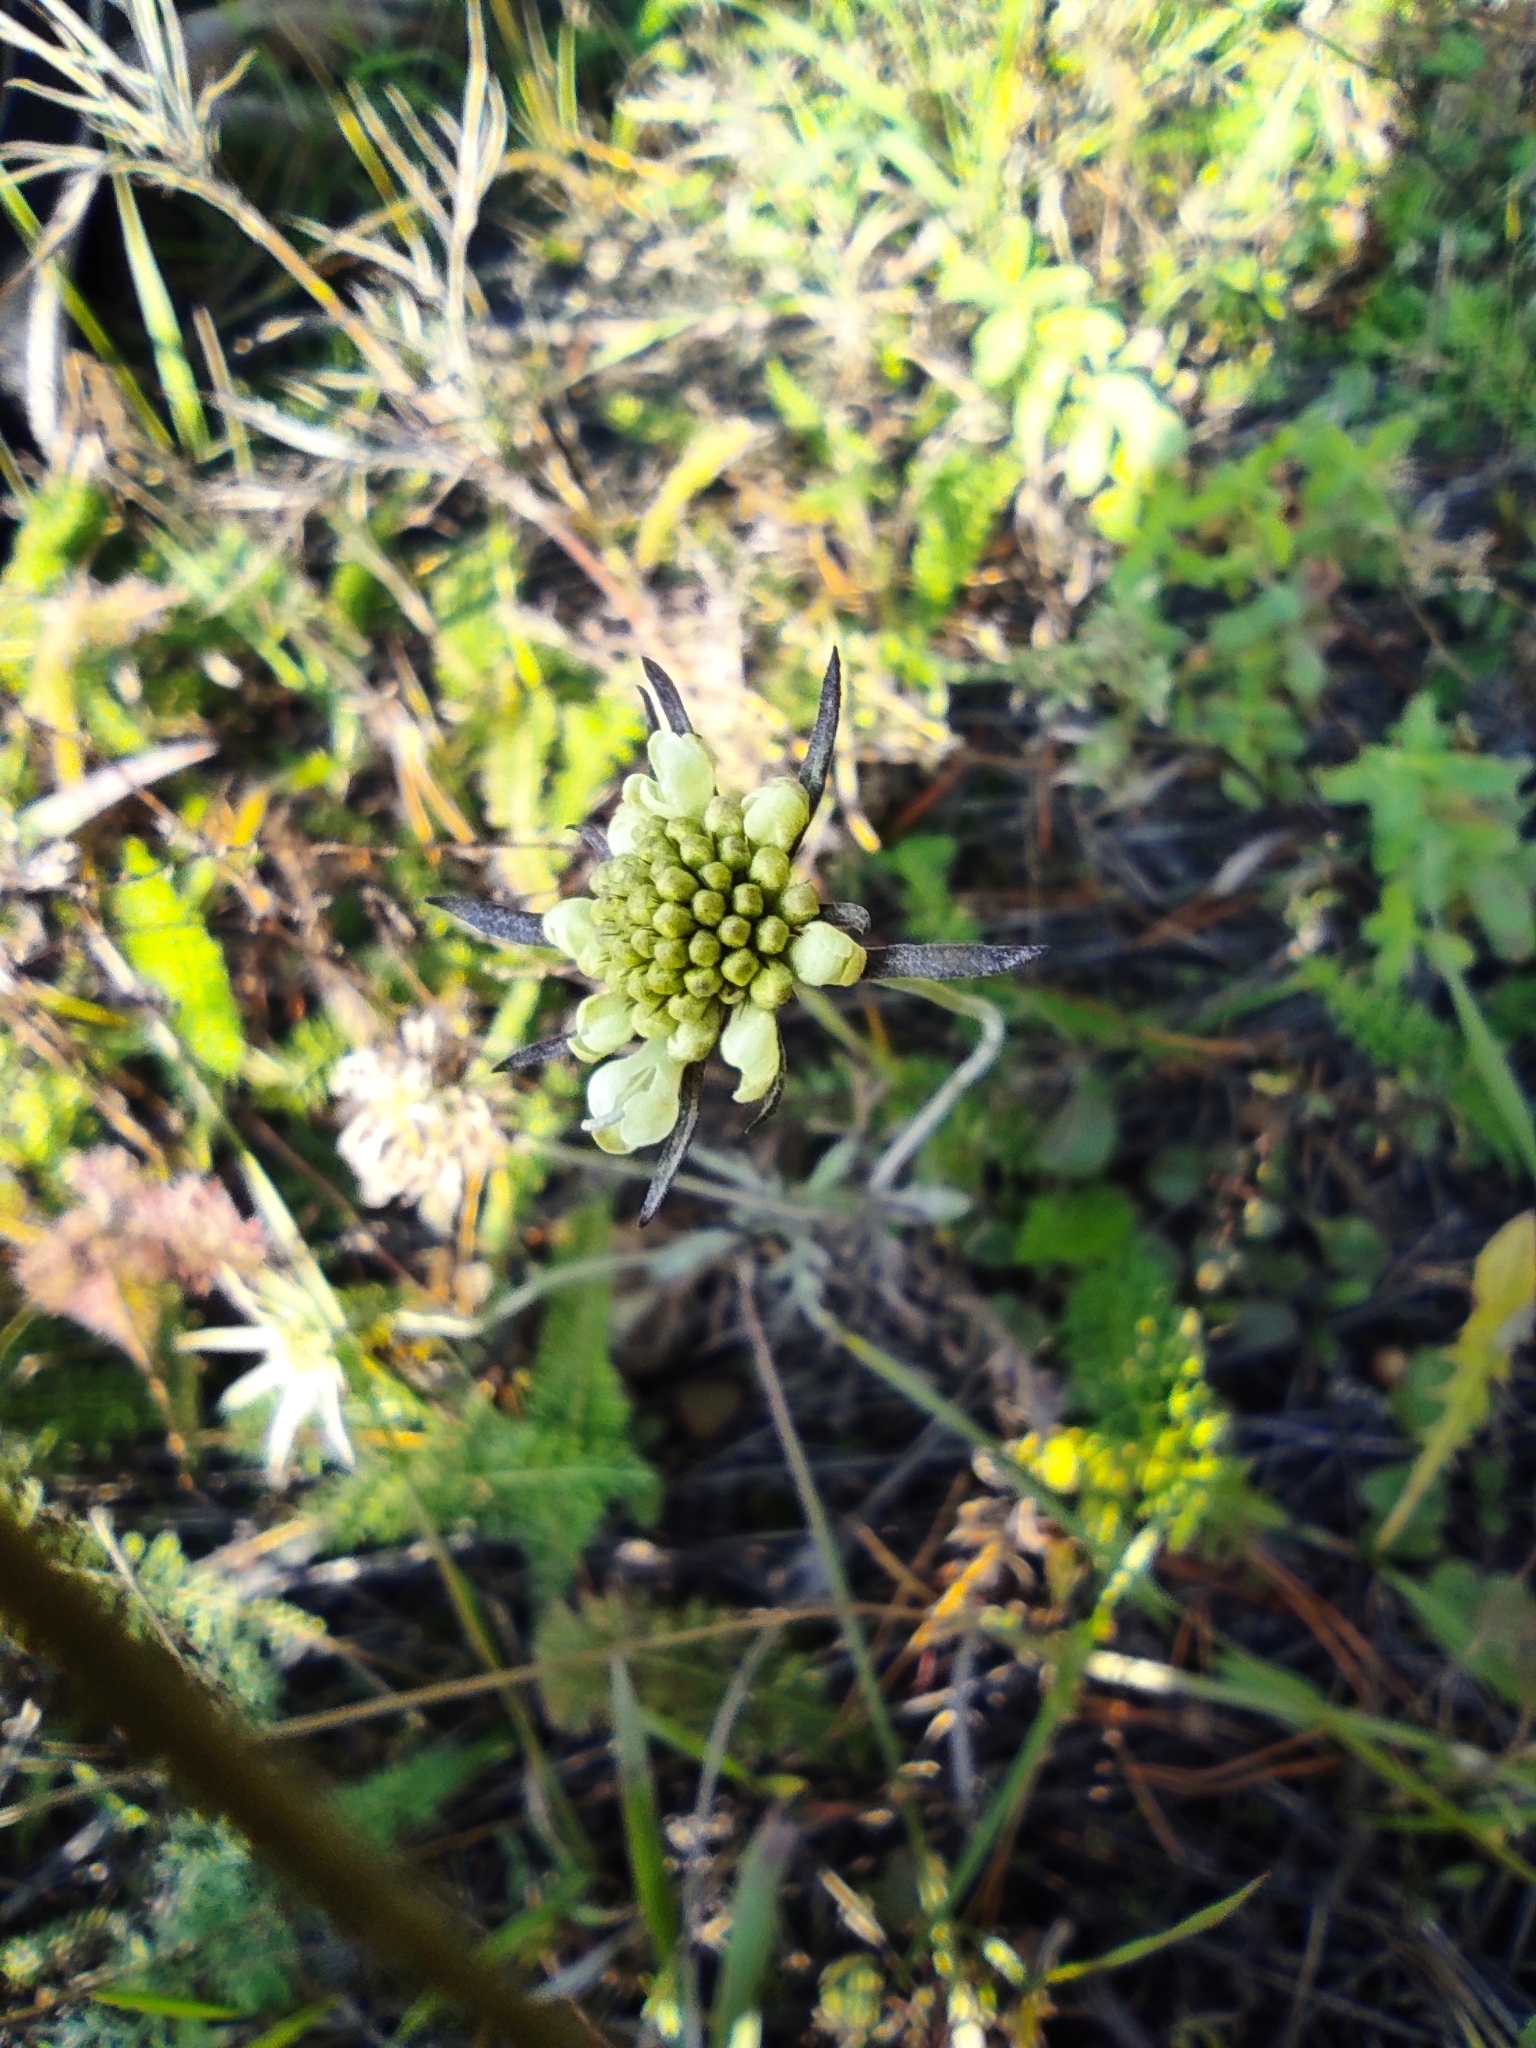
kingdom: Plantae
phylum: Tracheophyta
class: Magnoliopsida
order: Dipsacales
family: Caprifoliaceae
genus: Scabiosa
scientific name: Scabiosa ochroleuca
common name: Cream pincushions
